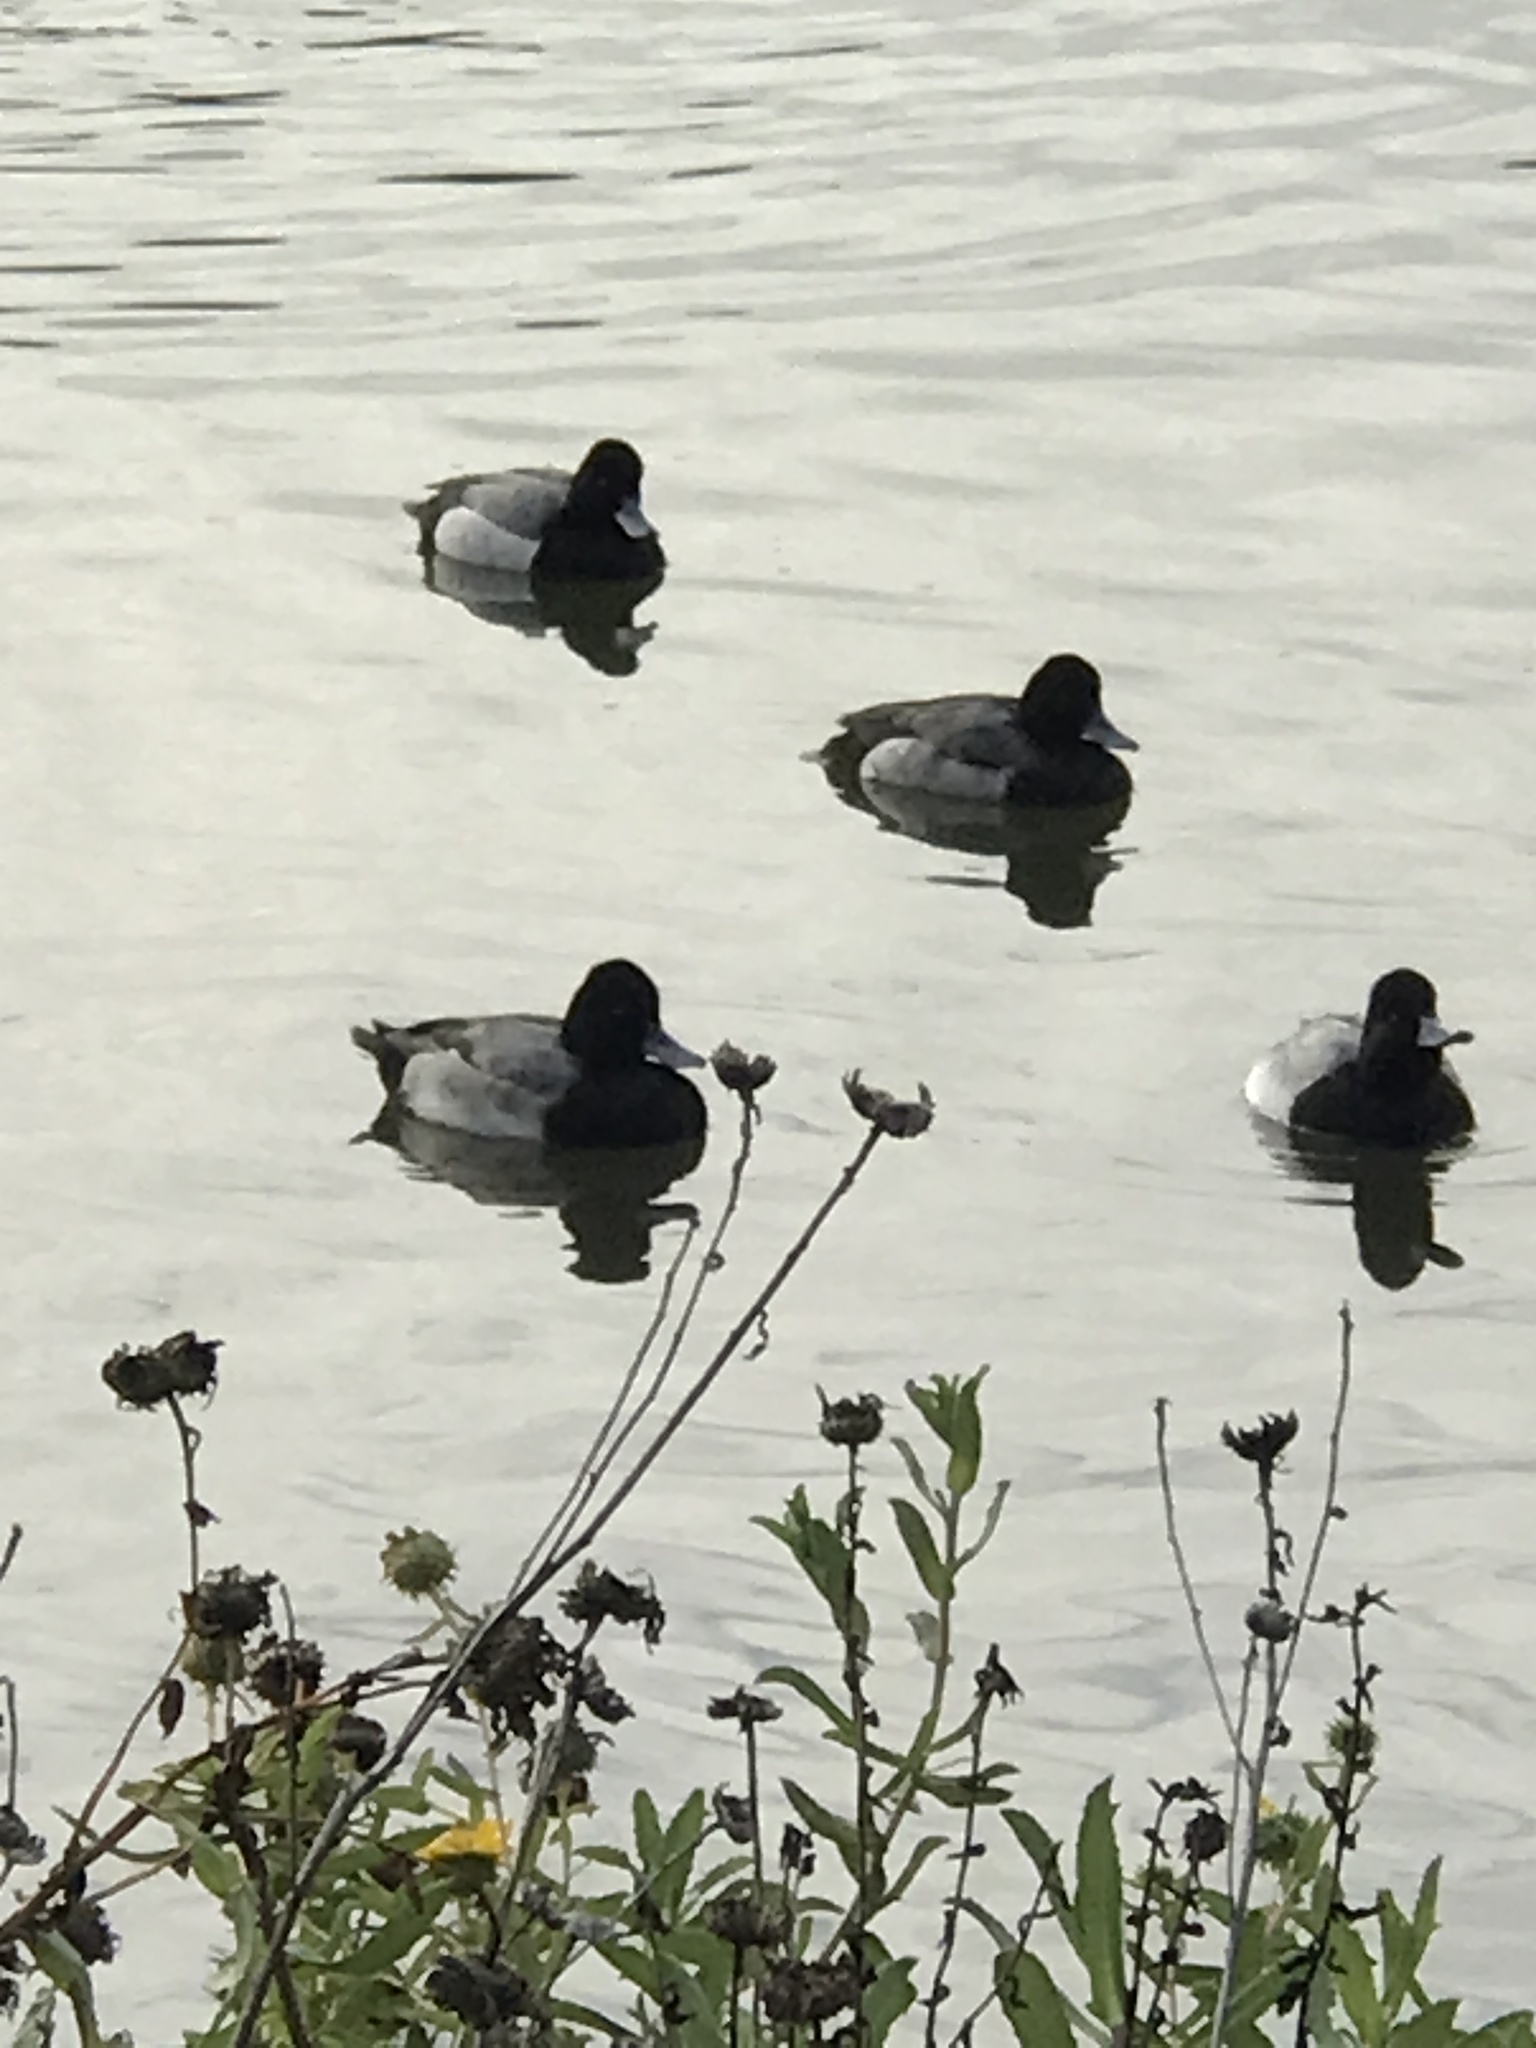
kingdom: Animalia
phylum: Chordata
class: Aves
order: Anseriformes
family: Anatidae
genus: Aythya
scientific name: Aythya affinis
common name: Lesser scaup
